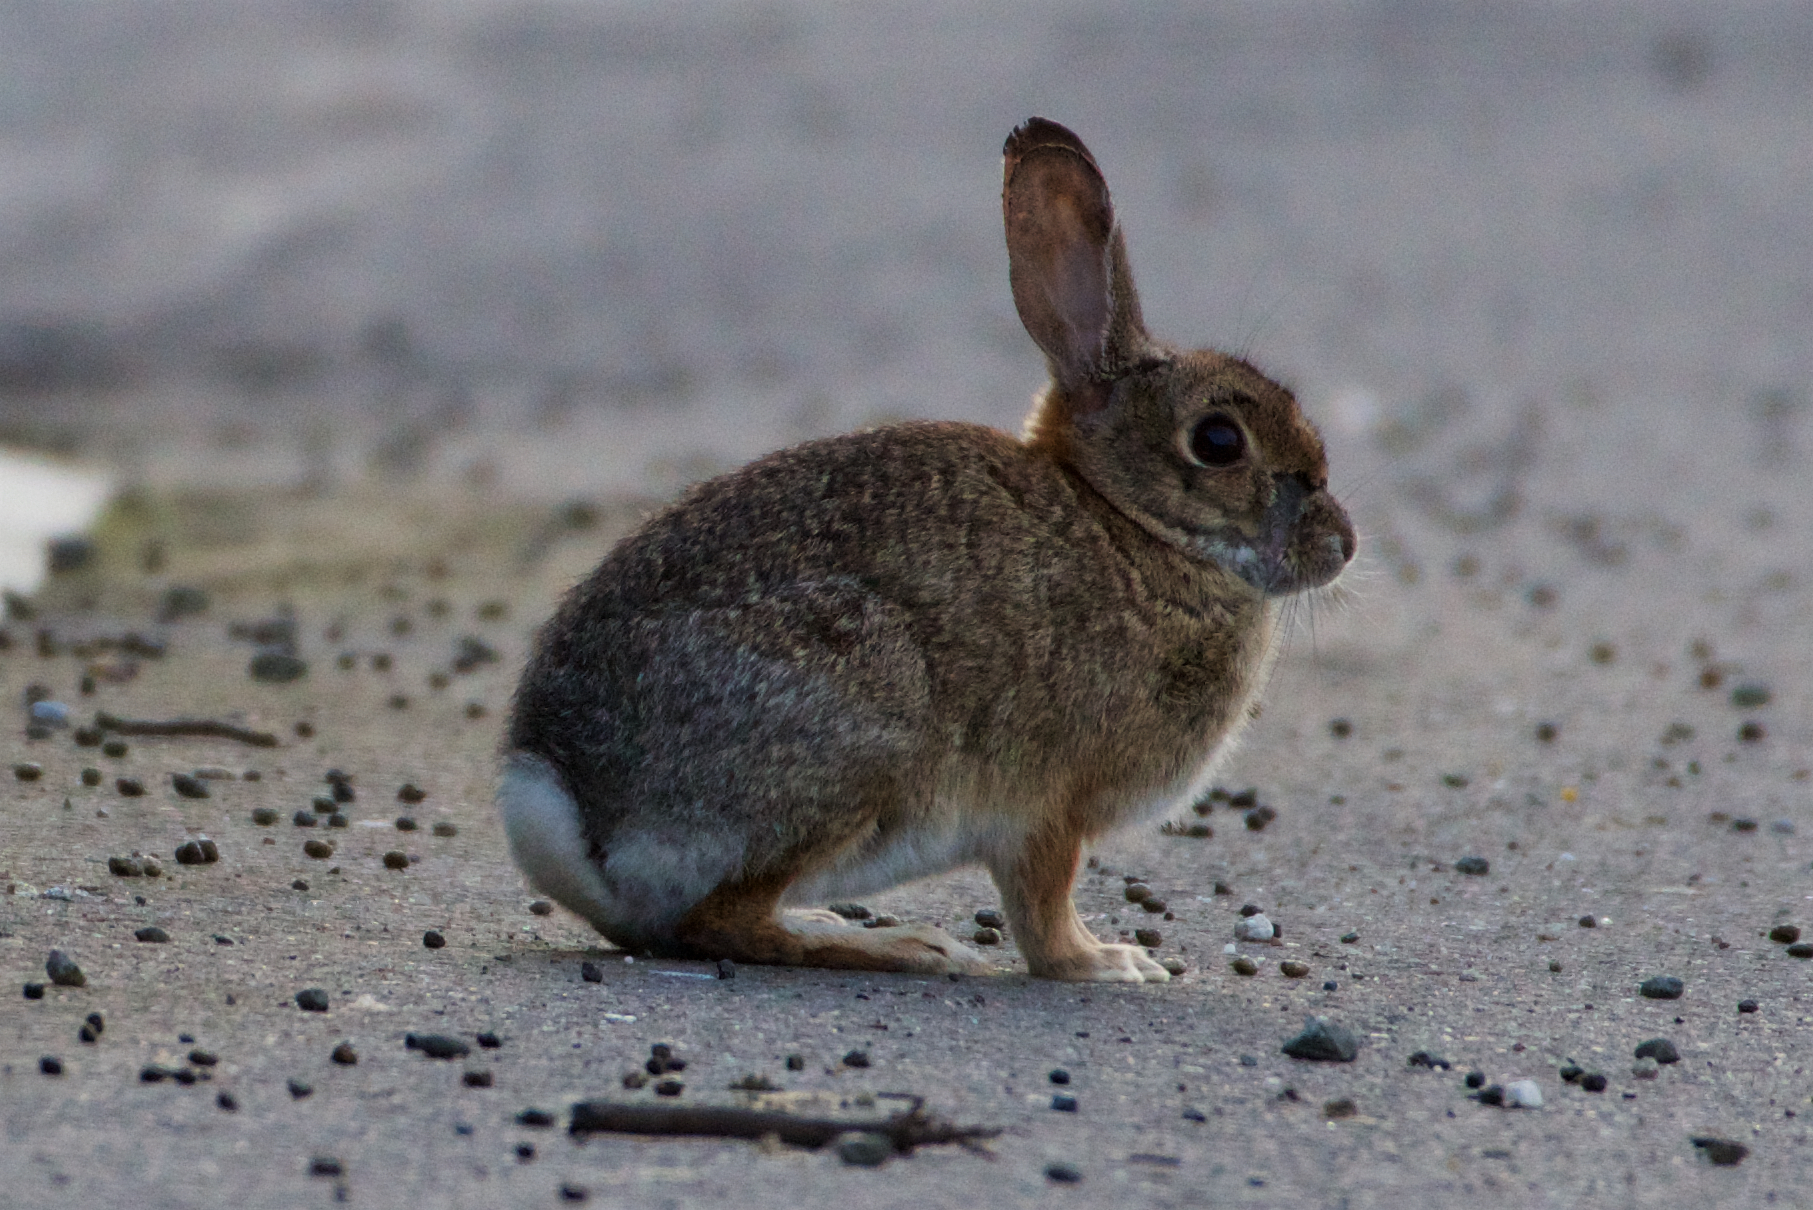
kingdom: Animalia
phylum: Chordata
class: Mammalia
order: Lagomorpha
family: Leporidae
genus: Sylvilagus
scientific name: Sylvilagus audubonii
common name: Desert cottontail
